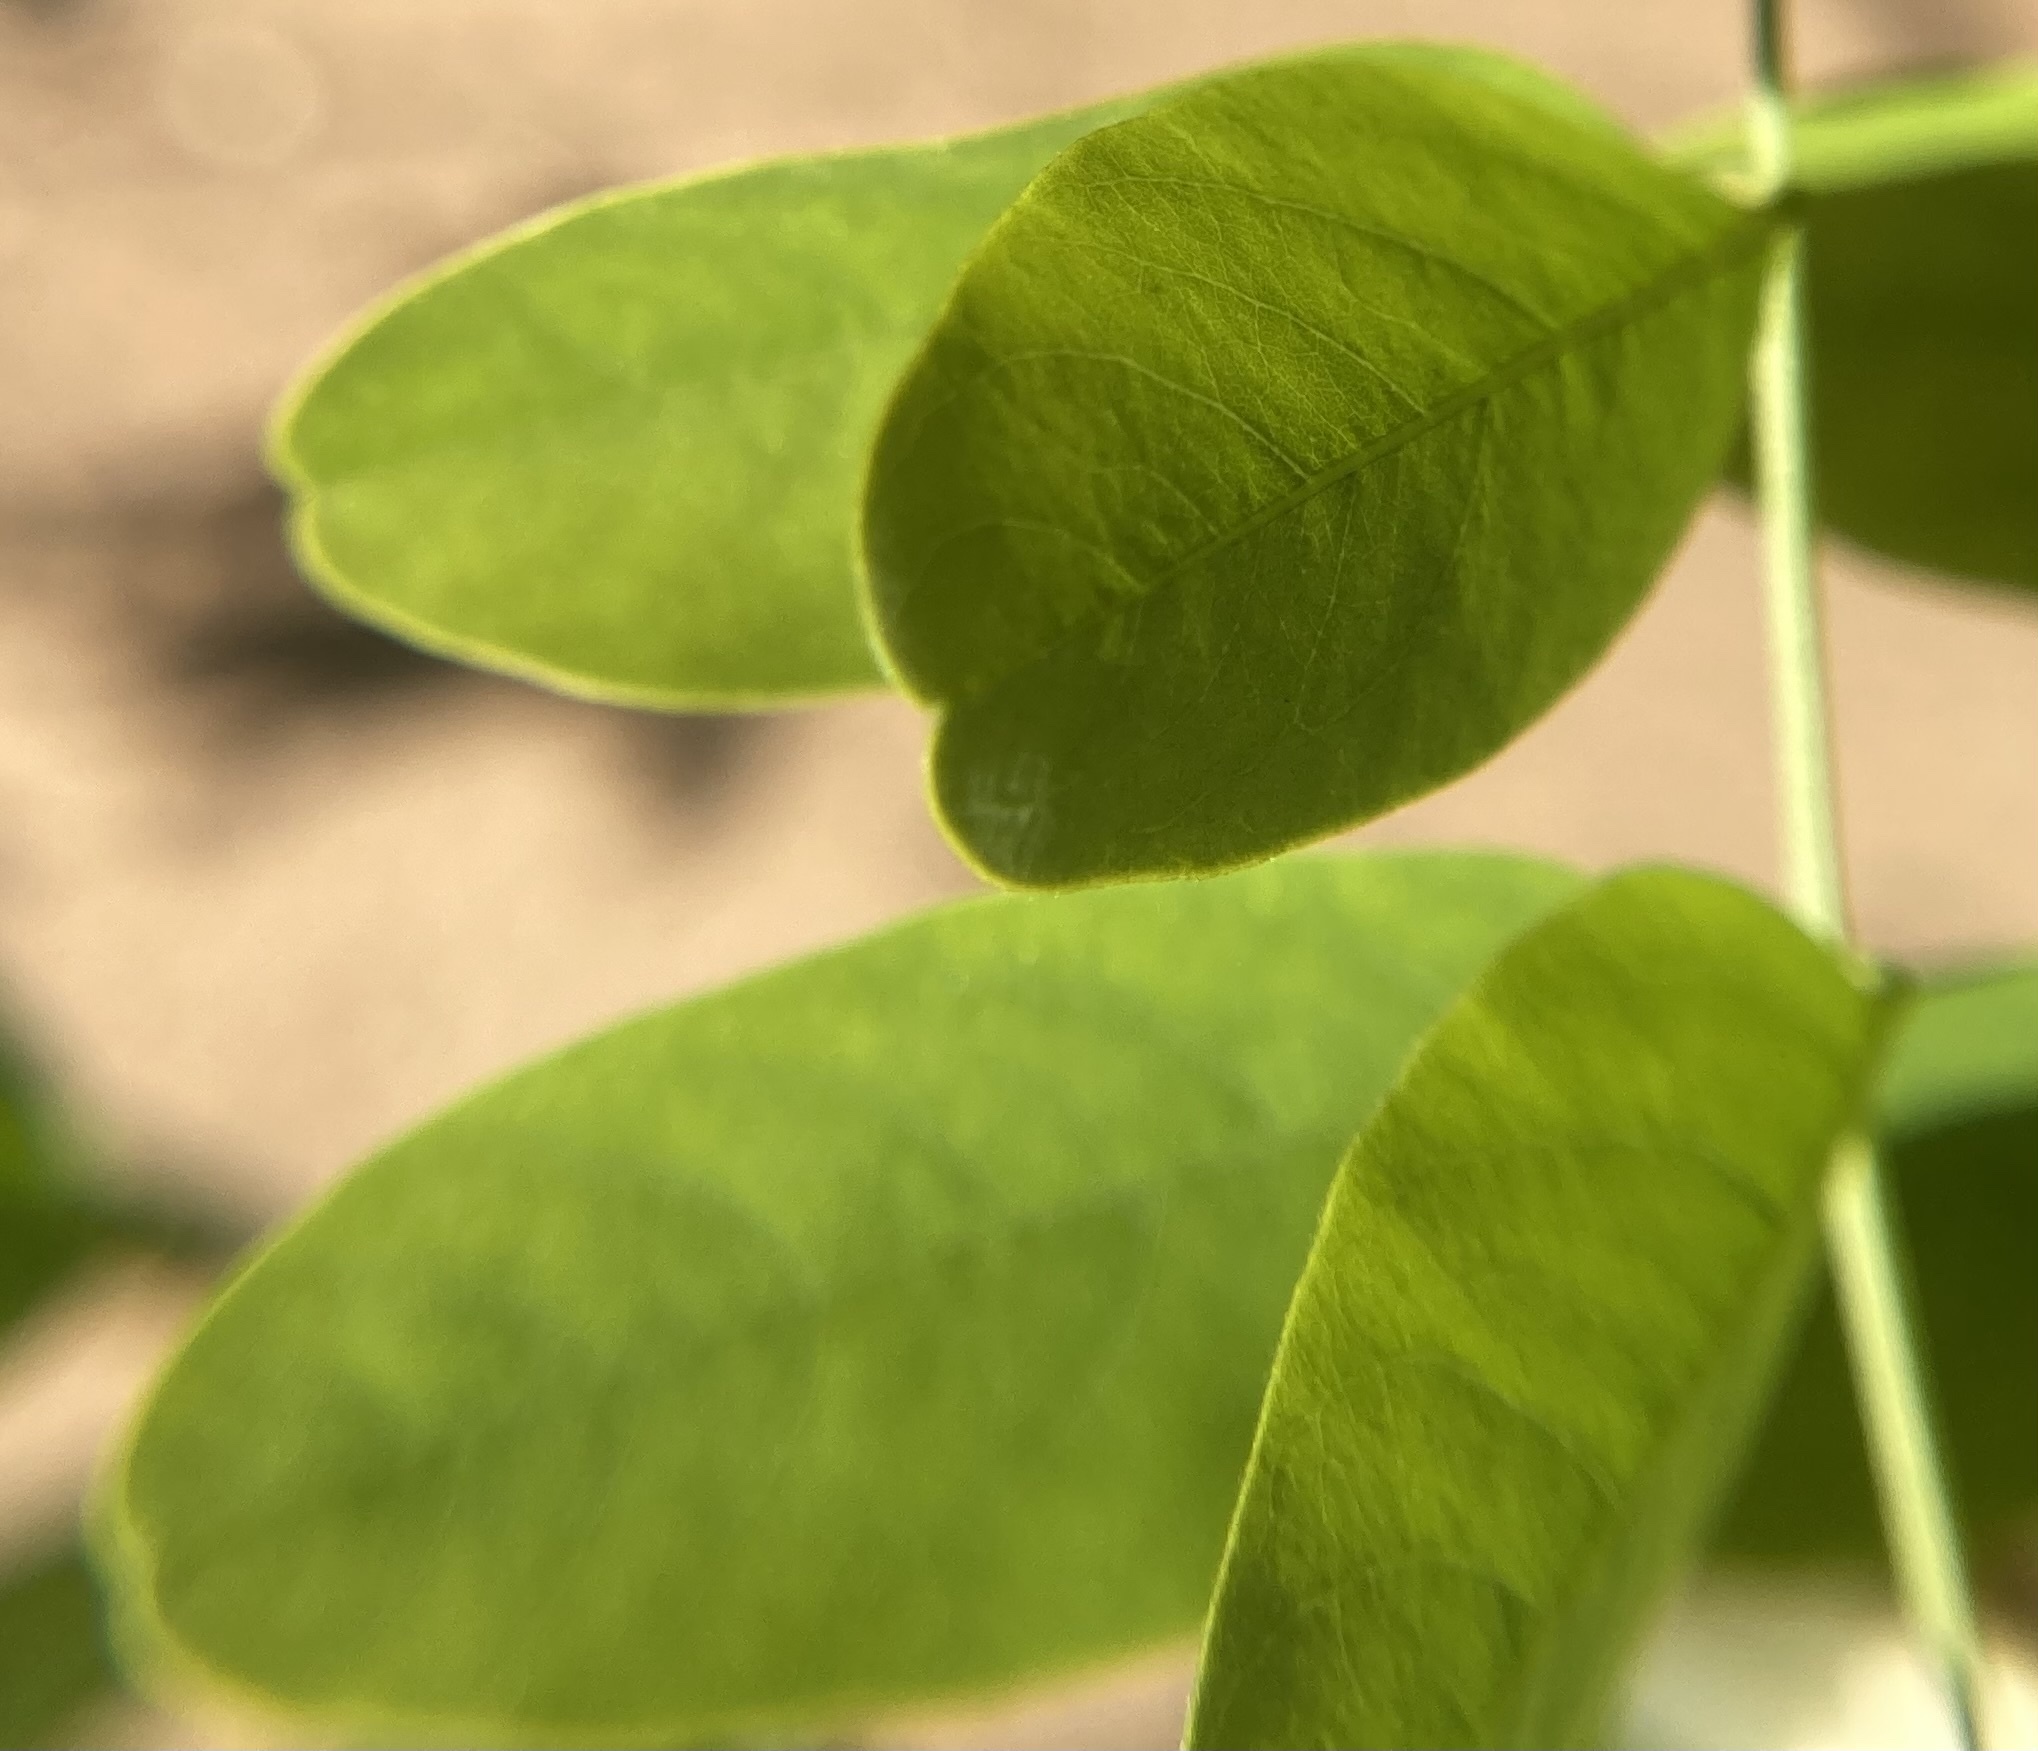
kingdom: Plantae
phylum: Tracheophyta
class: Magnoliopsida
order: Fabales
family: Fabaceae
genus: Robinia
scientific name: Robinia pseudoacacia
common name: Black locust
